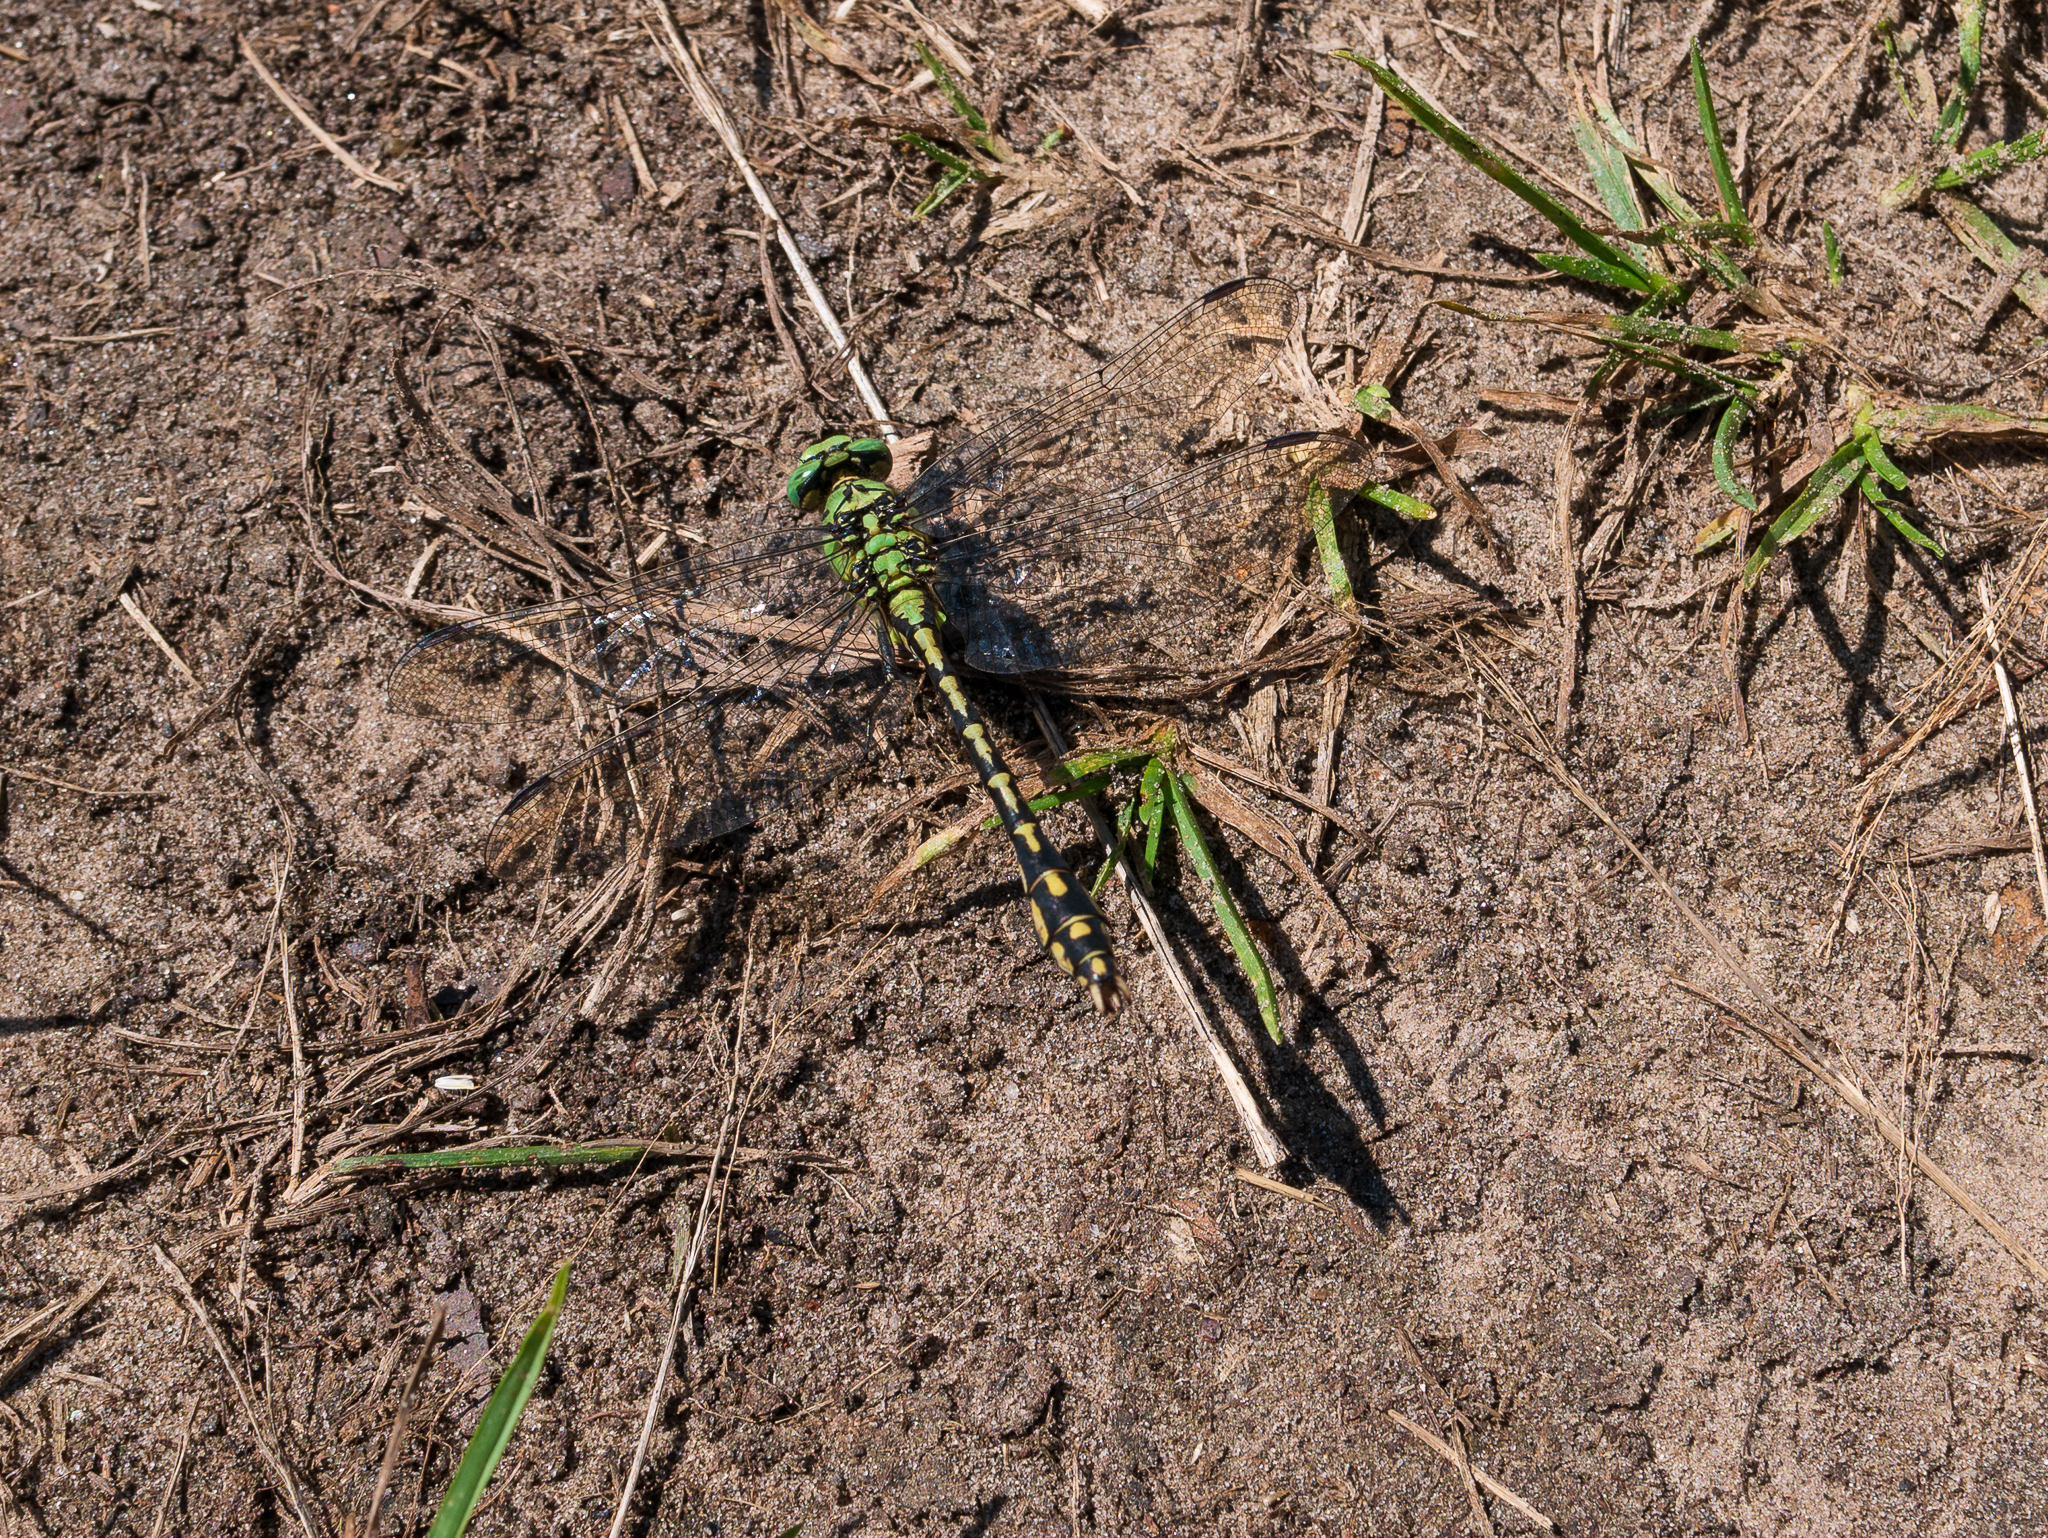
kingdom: Animalia
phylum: Arthropoda
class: Insecta
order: Odonata
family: Gomphidae
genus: Ophiogomphus
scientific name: Ophiogomphus cecilia
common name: Green snaketail
